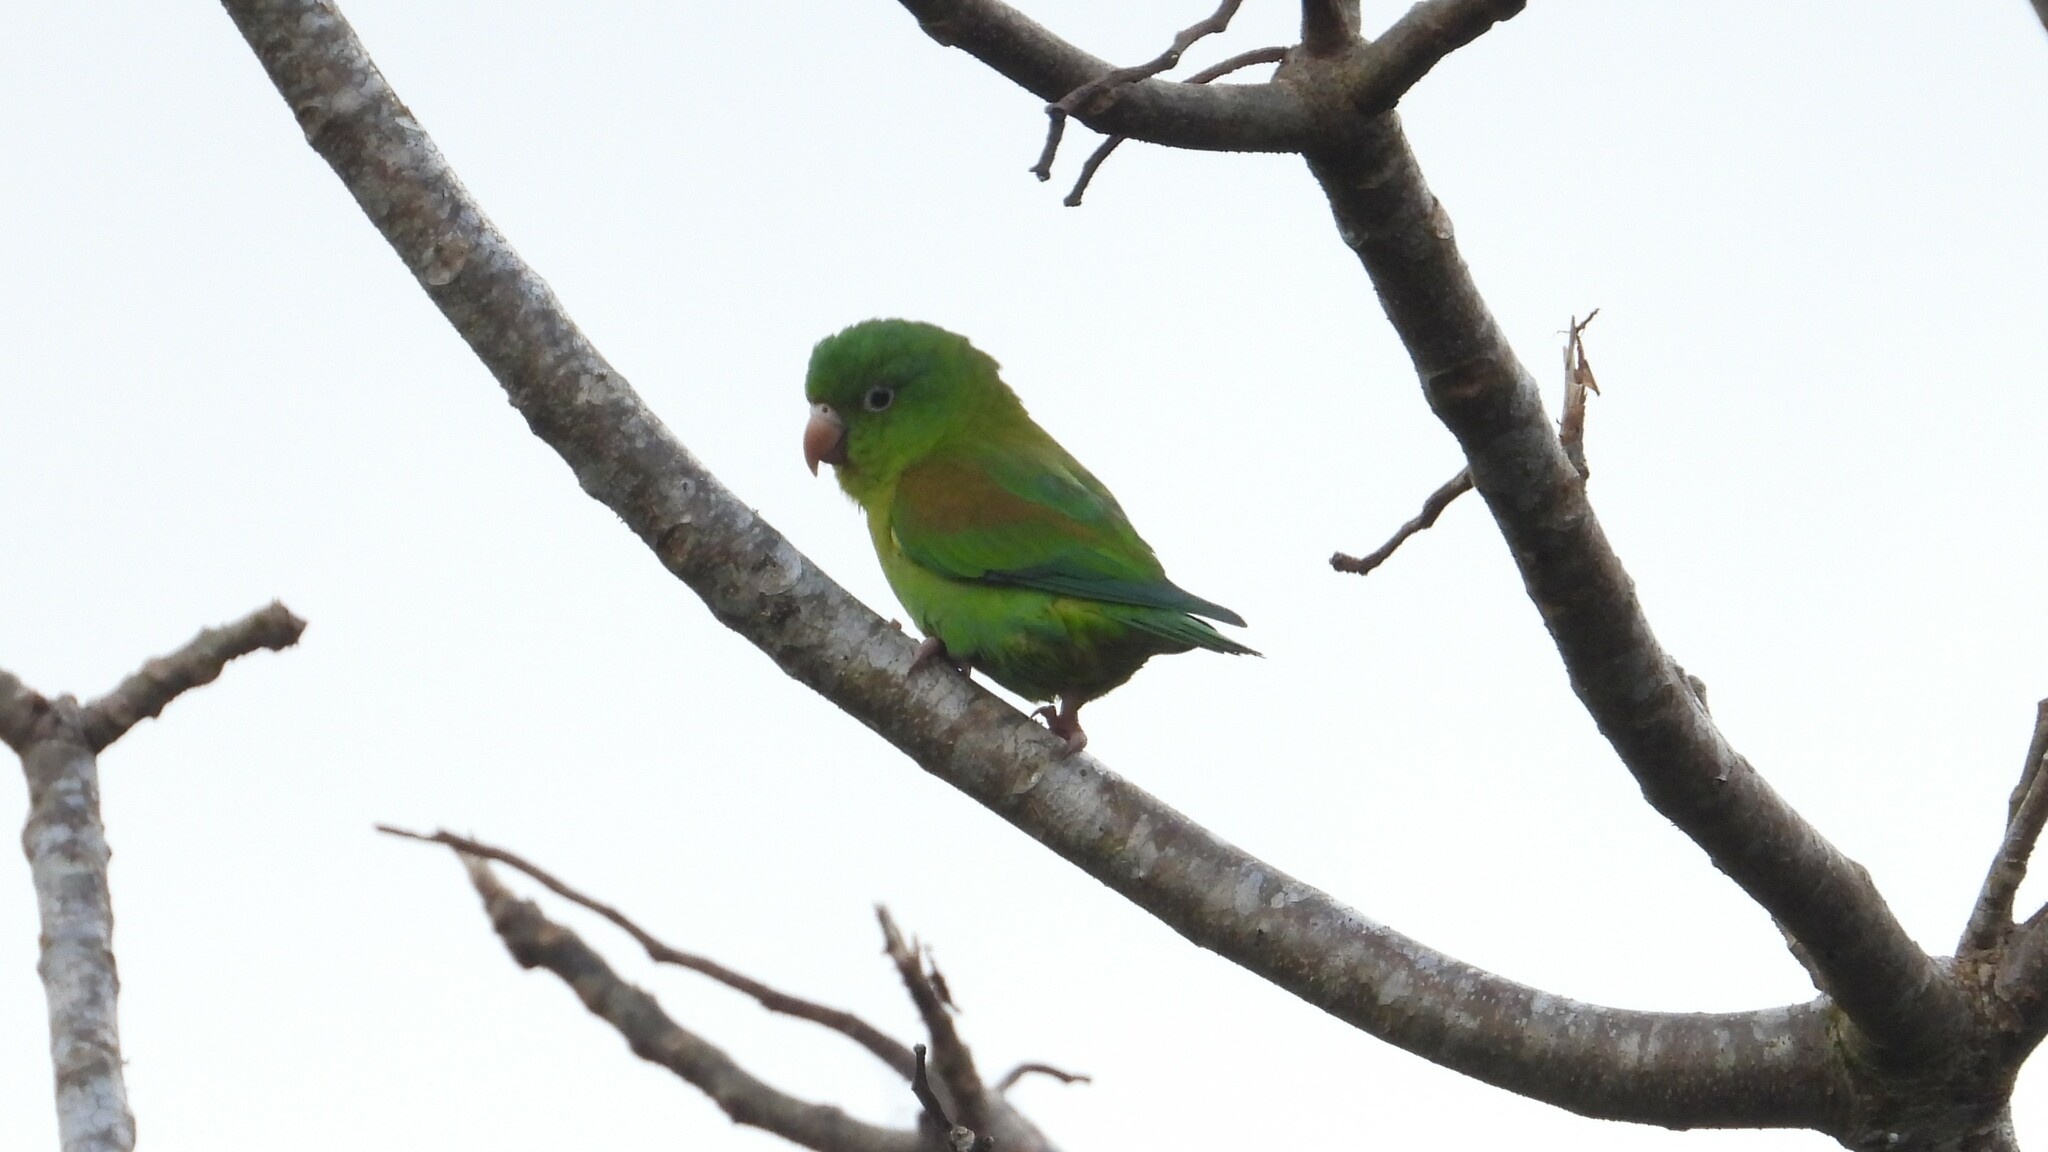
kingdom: Animalia
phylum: Chordata
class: Aves
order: Psittaciformes
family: Psittacidae
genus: Brotogeris
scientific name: Brotogeris jugularis
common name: Orange-chinned parakeet
